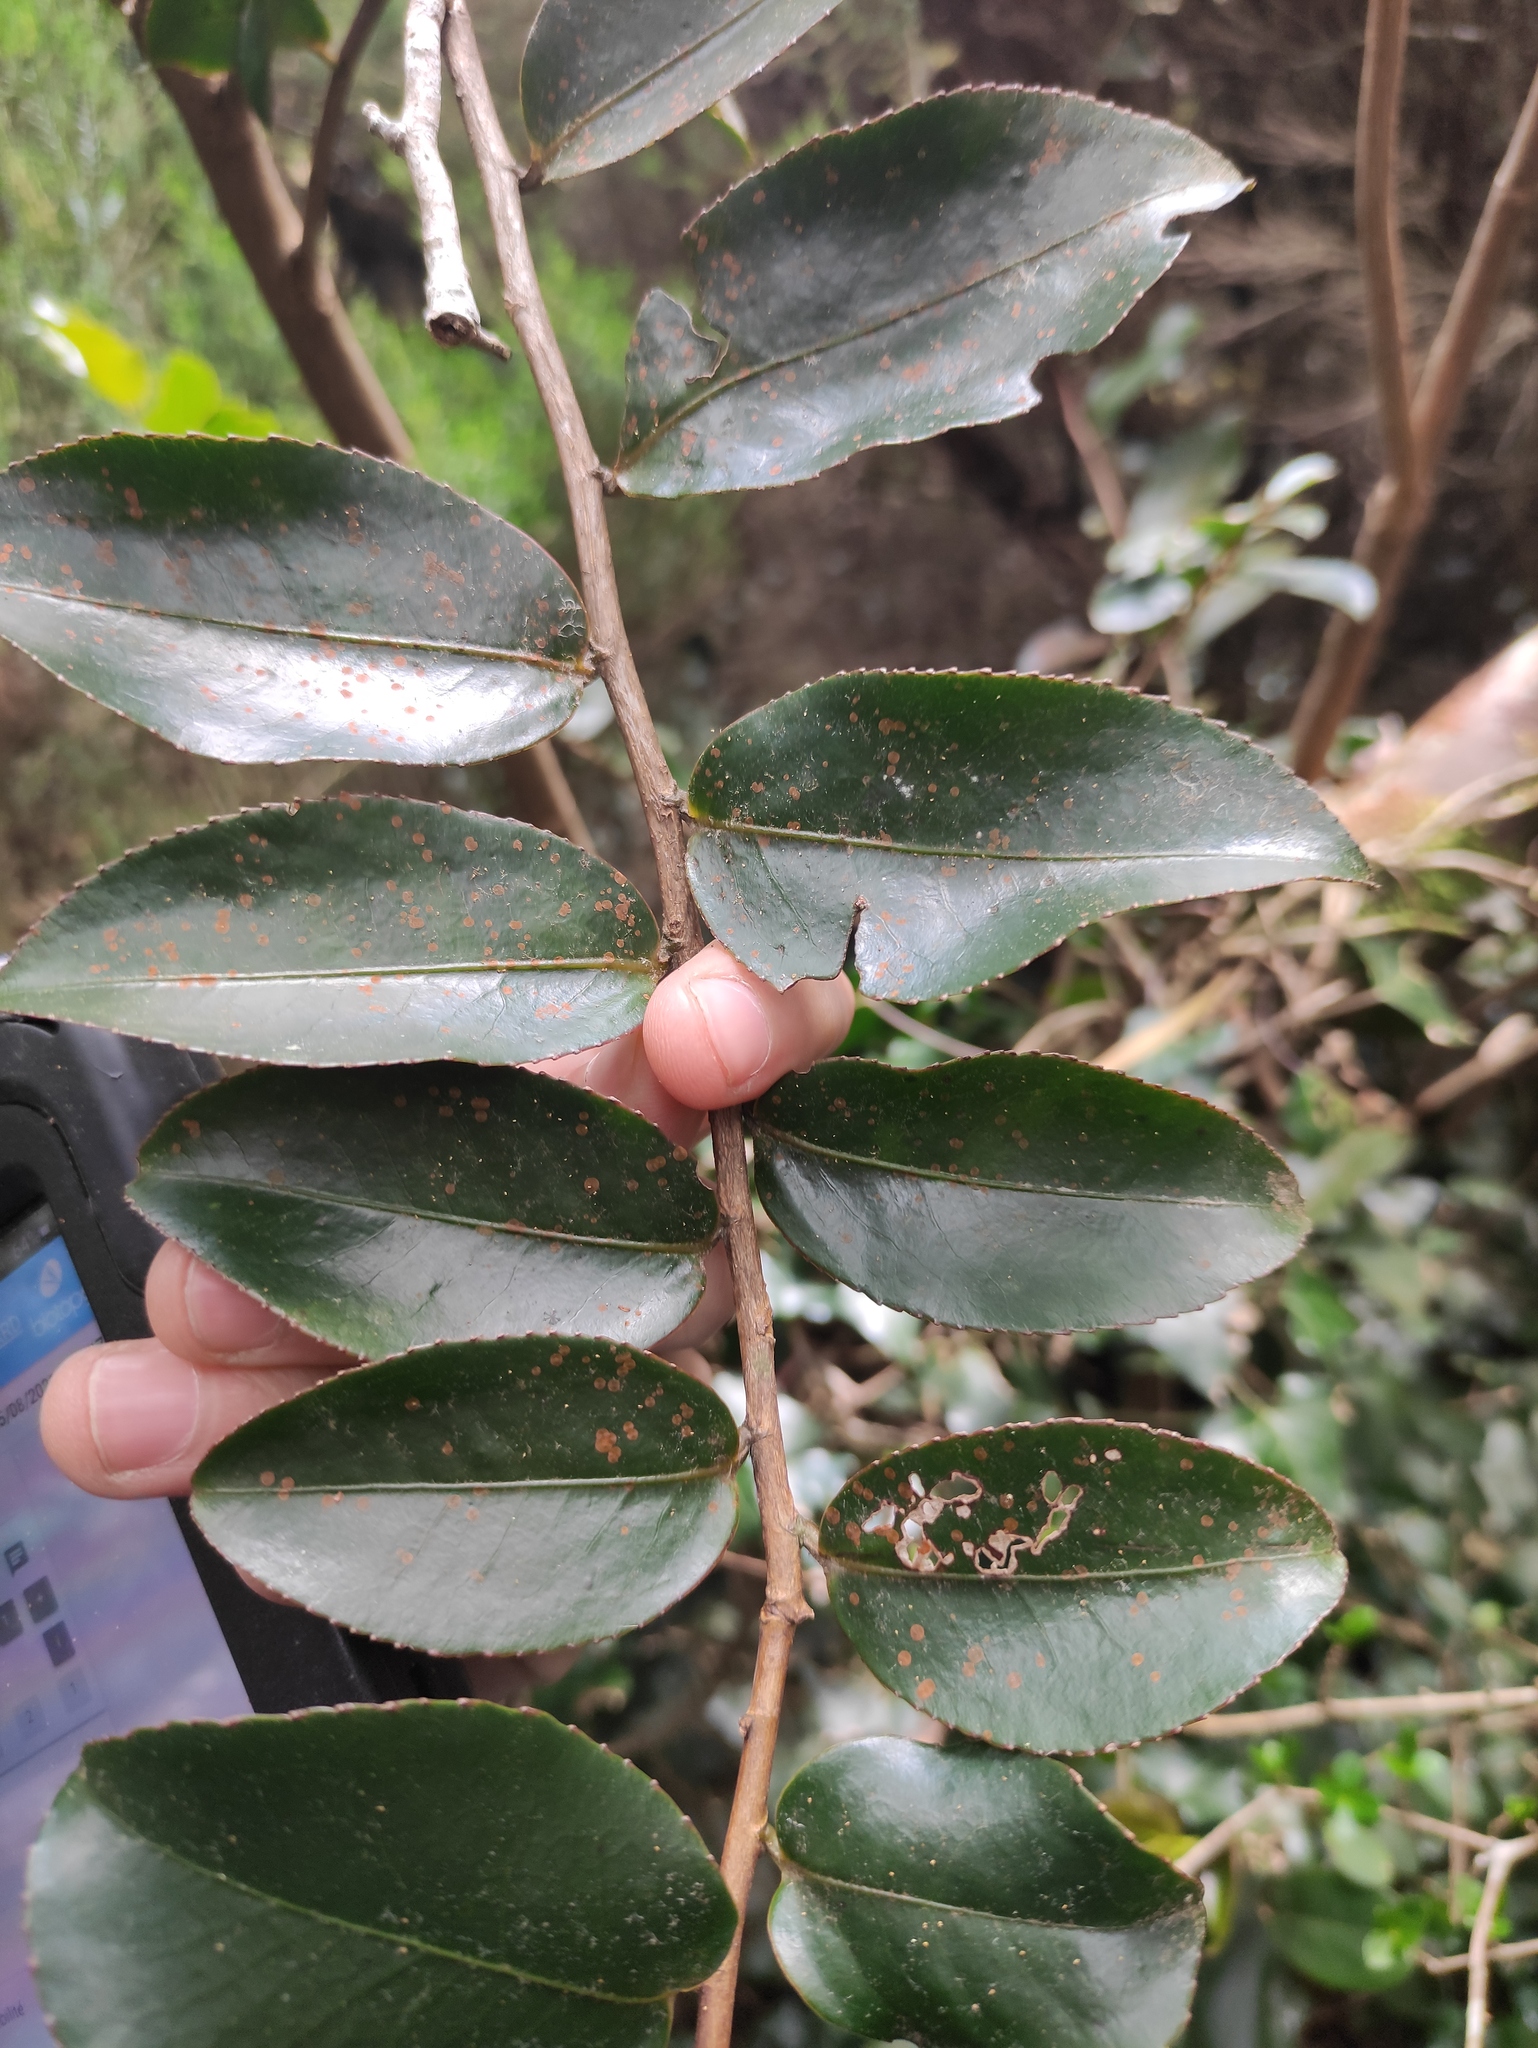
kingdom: Plantae
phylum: Tracheophyta
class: Magnoliopsida
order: Crossosomatales
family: Aphloiaceae
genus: Aphloia
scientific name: Aphloia theiformis
